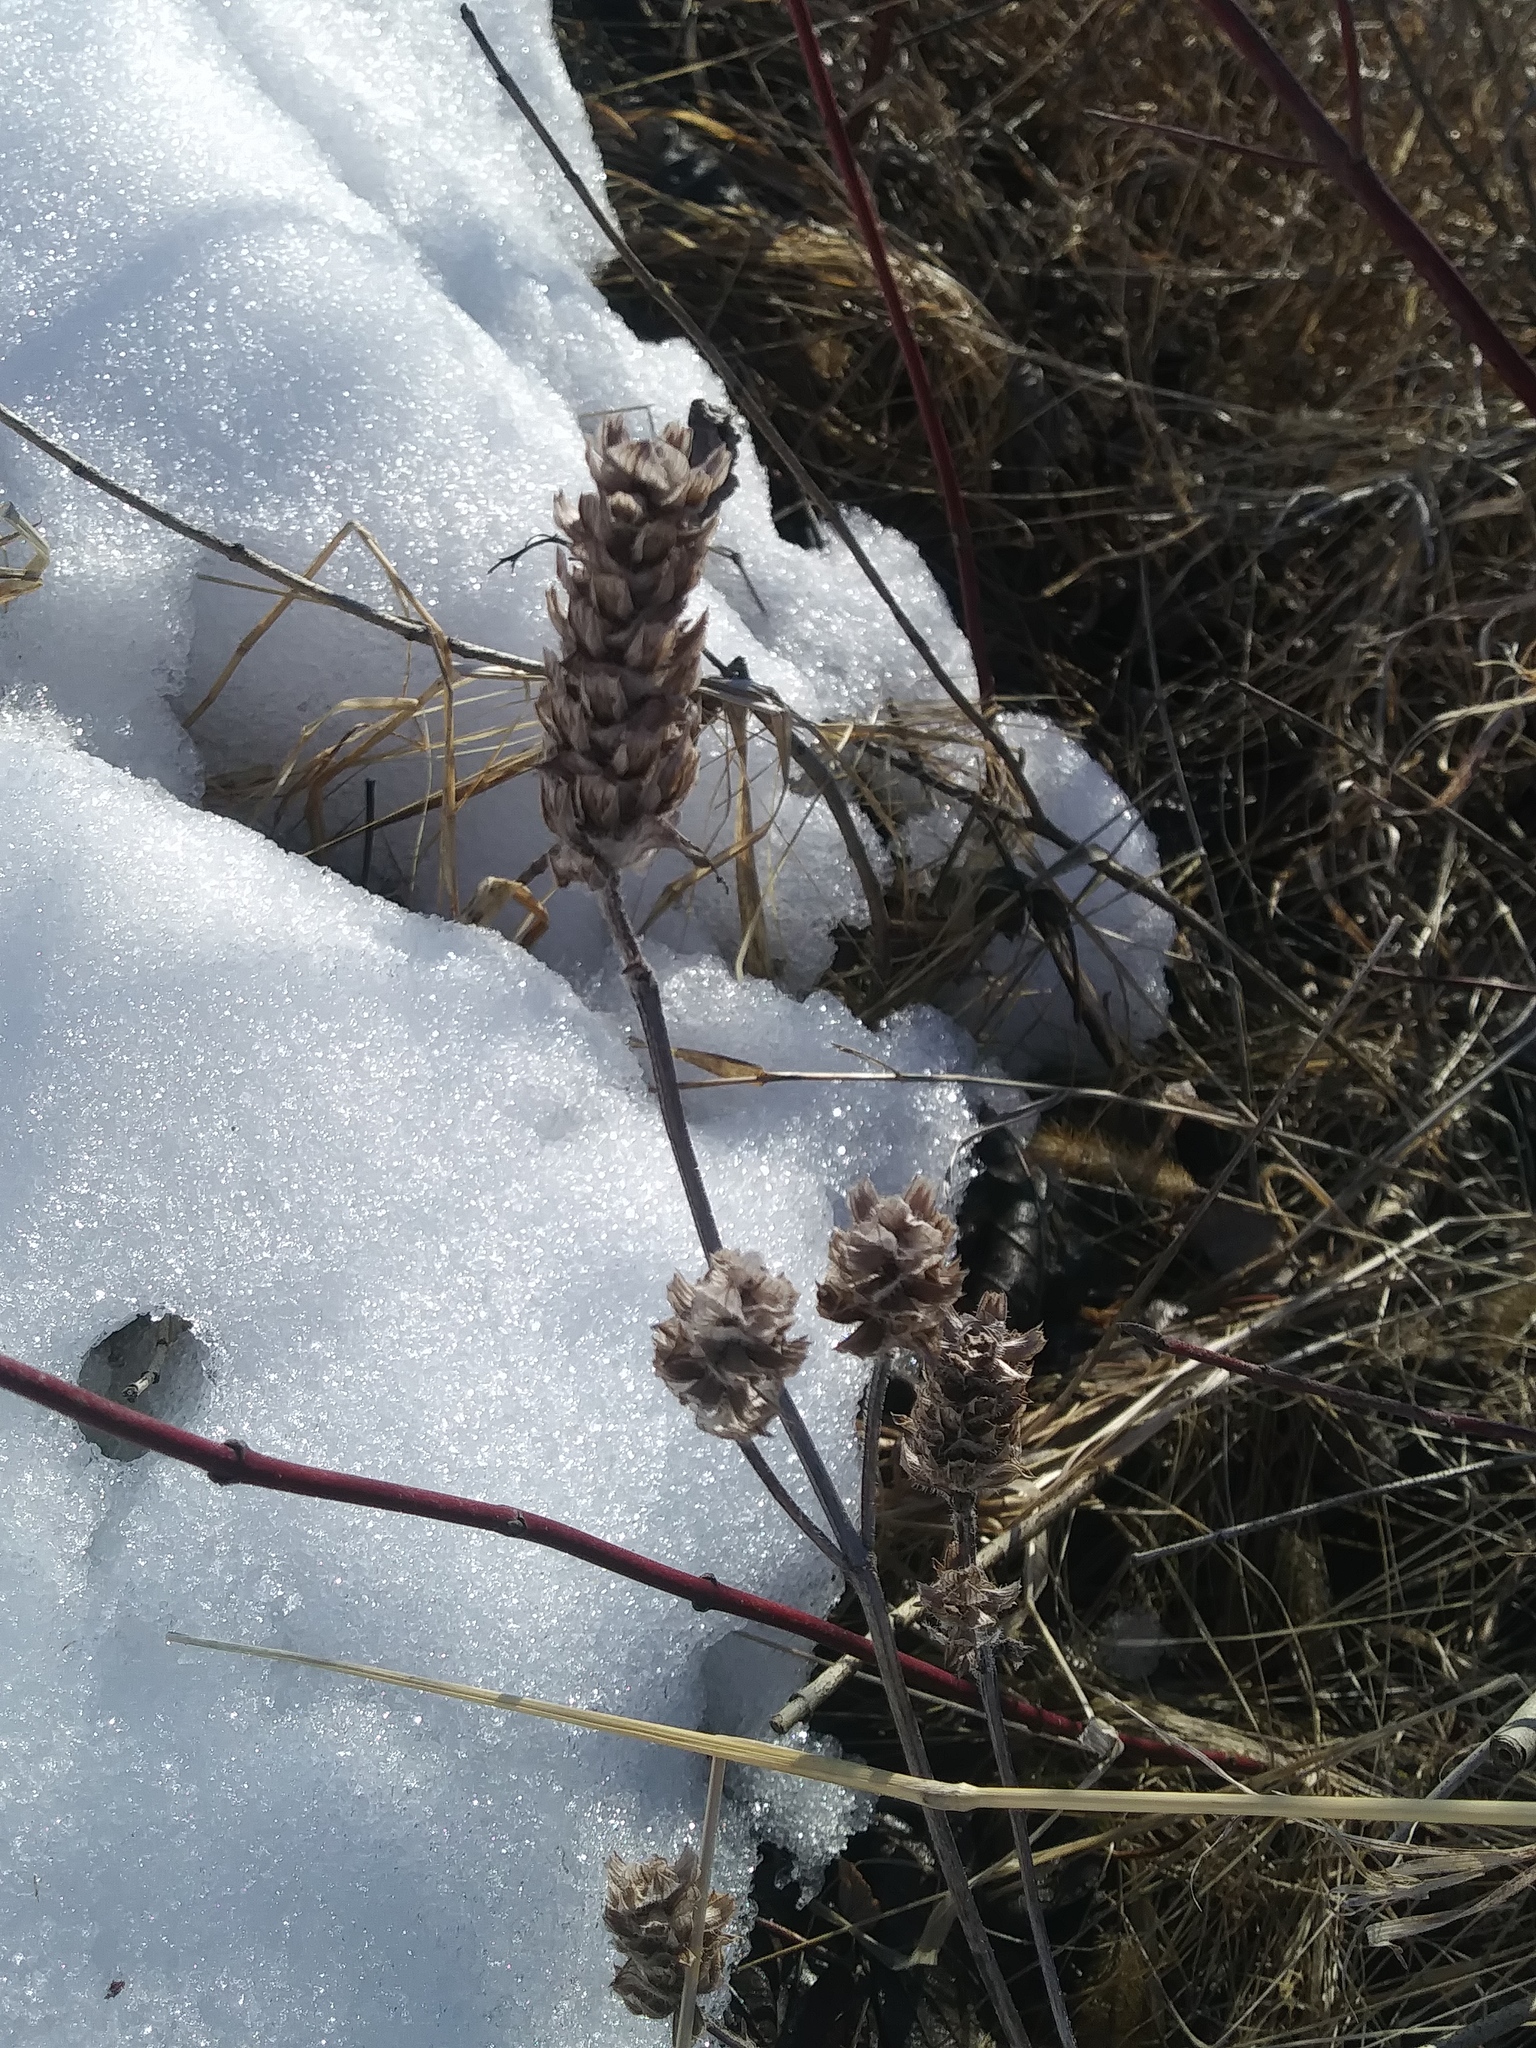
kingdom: Plantae
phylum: Tracheophyta
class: Magnoliopsida
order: Lamiales
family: Lamiaceae
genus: Prunella
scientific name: Prunella vulgaris
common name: Heal-all
